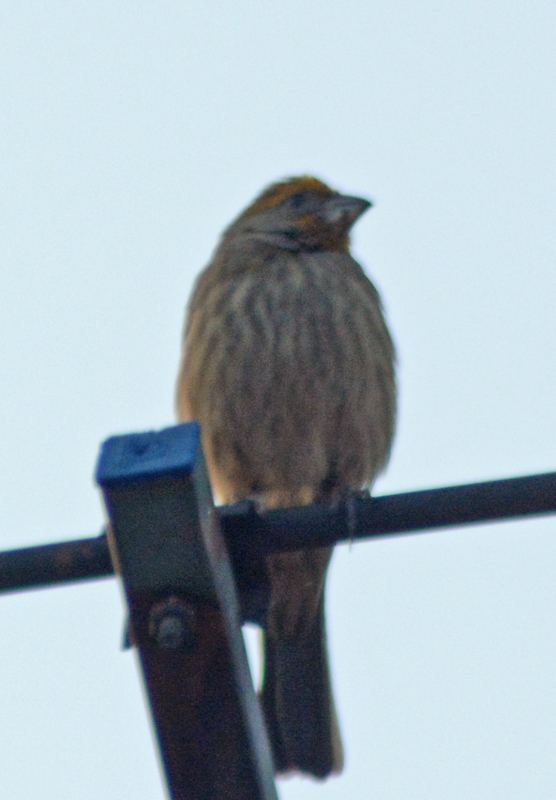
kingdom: Animalia
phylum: Chordata
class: Aves
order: Passeriformes
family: Fringillidae
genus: Haemorhous
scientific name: Haemorhous mexicanus
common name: House finch
